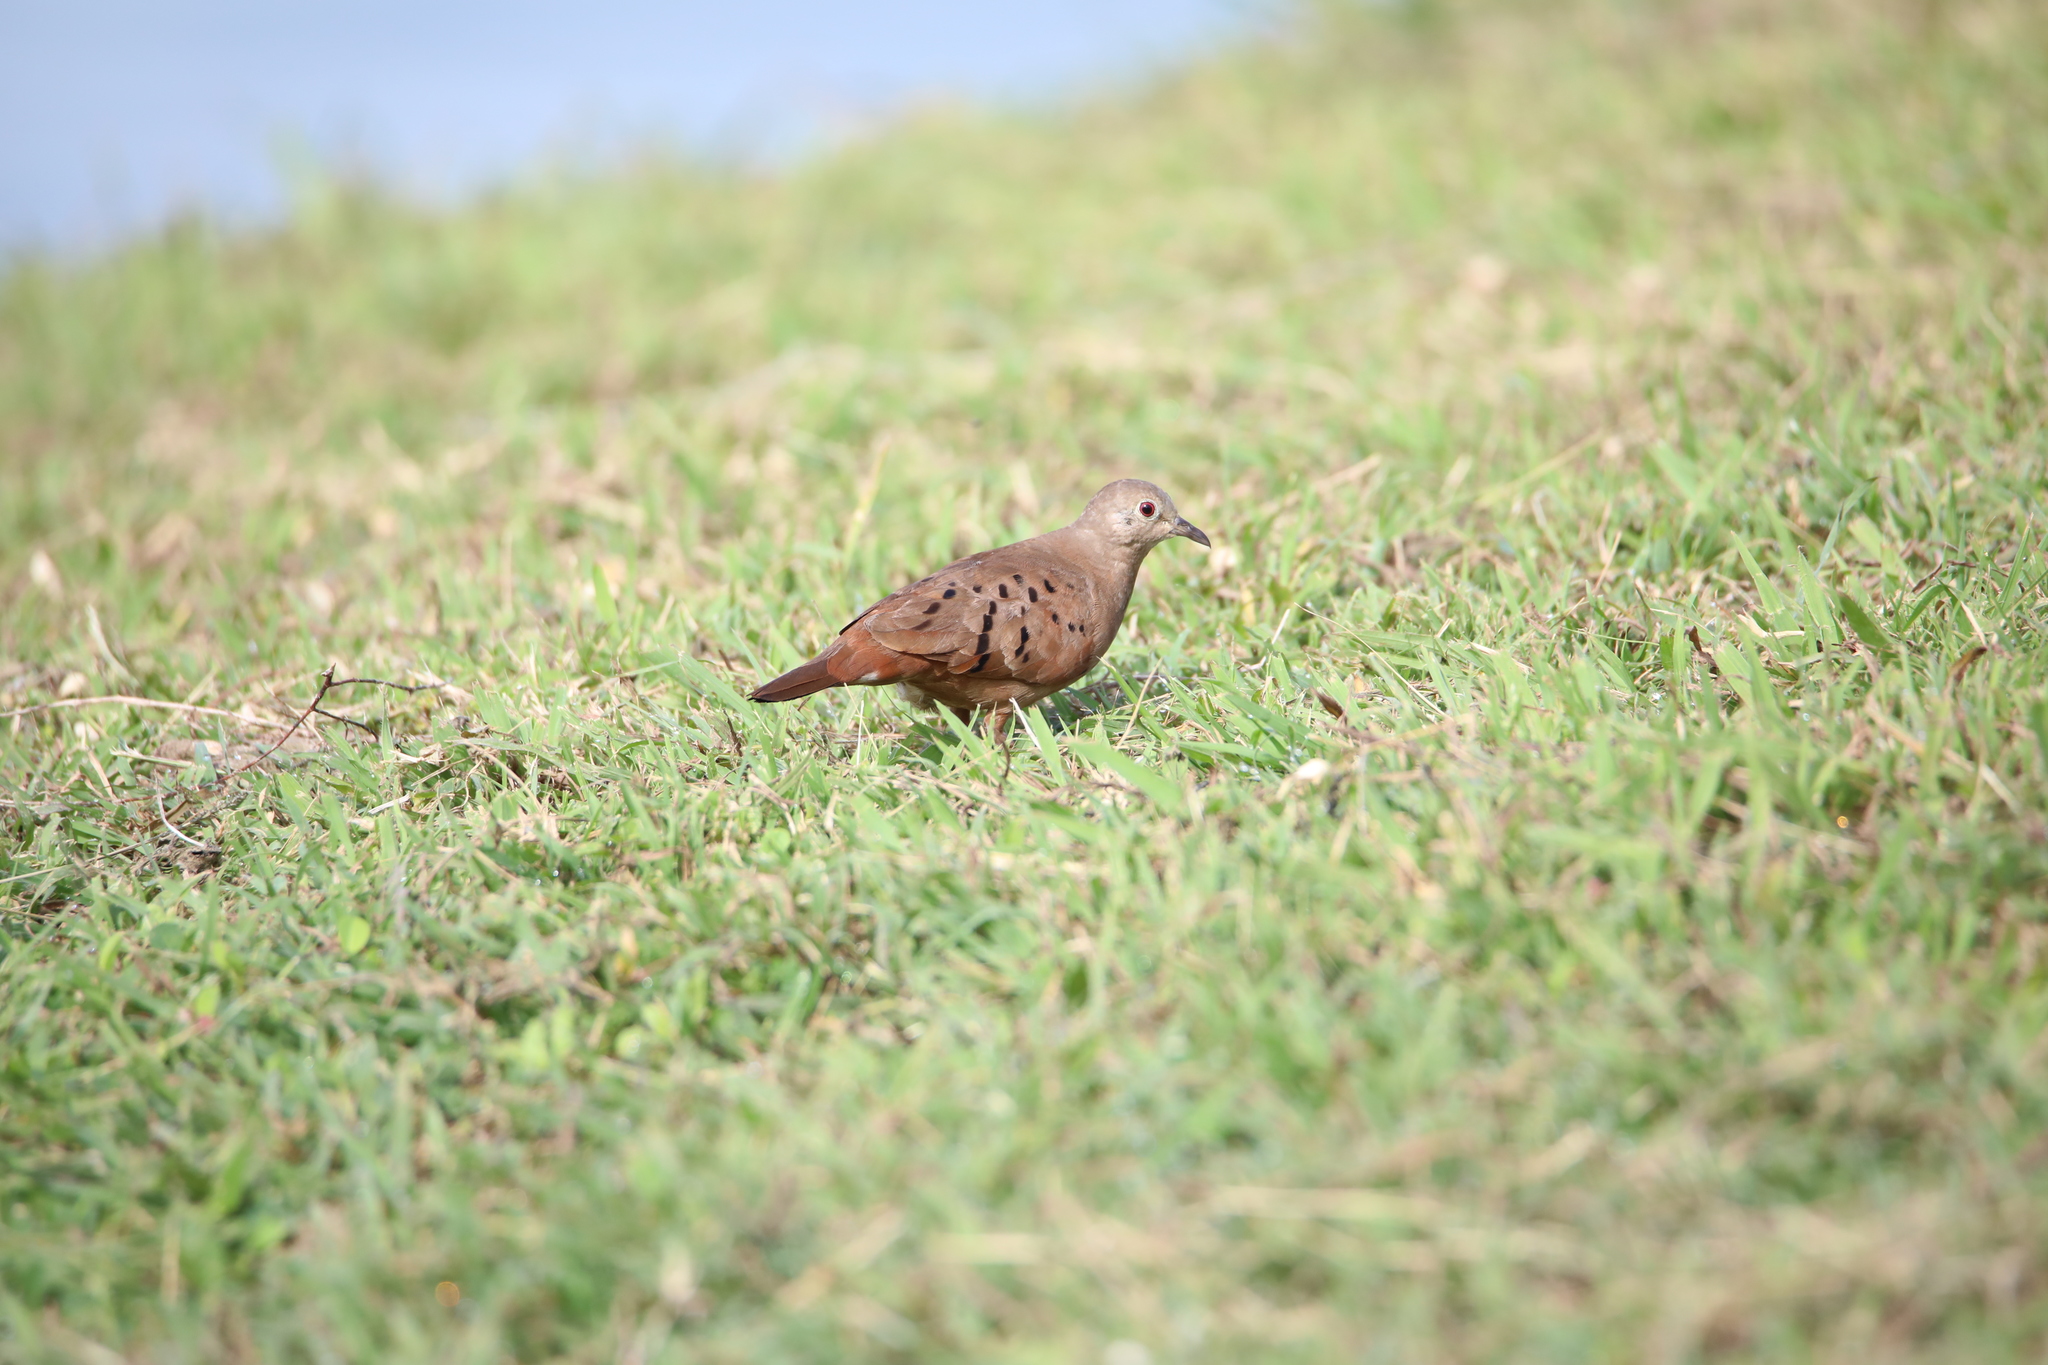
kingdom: Animalia
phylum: Chordata
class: Aves
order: Columbiformes
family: Columbidae
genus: Columbina
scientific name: Columbina talpacoti
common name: Ruddy ground dove
